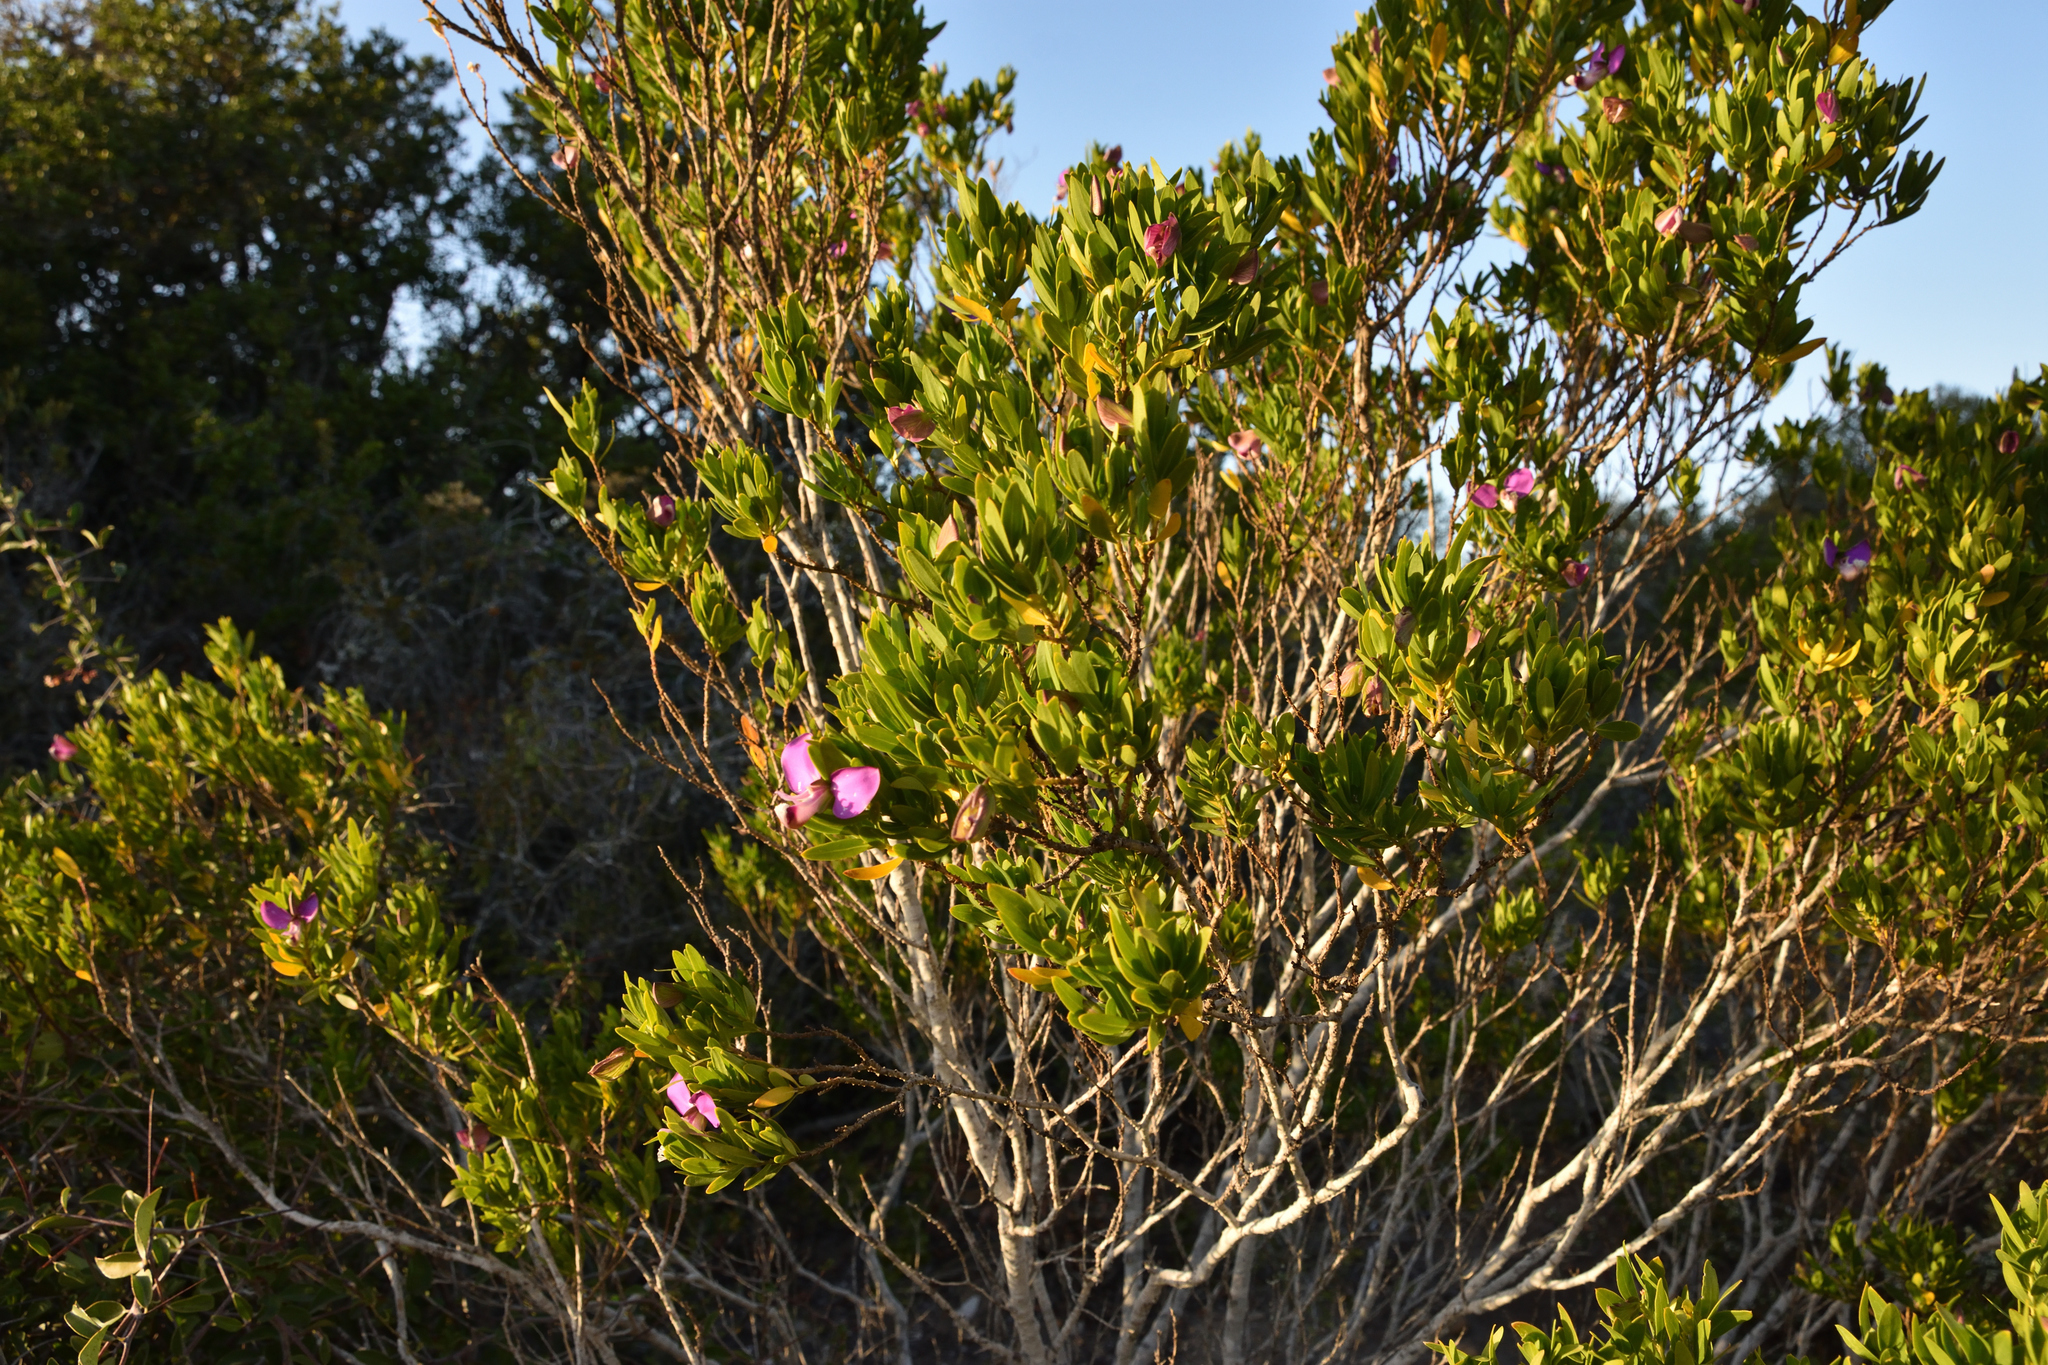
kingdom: Plantae
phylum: Tracheophyta
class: Magnoliopsida
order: Fabales
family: Polygalaceae
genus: Polygala
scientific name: Polygala myrtifolia
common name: Myrtle-leaf milkwort
